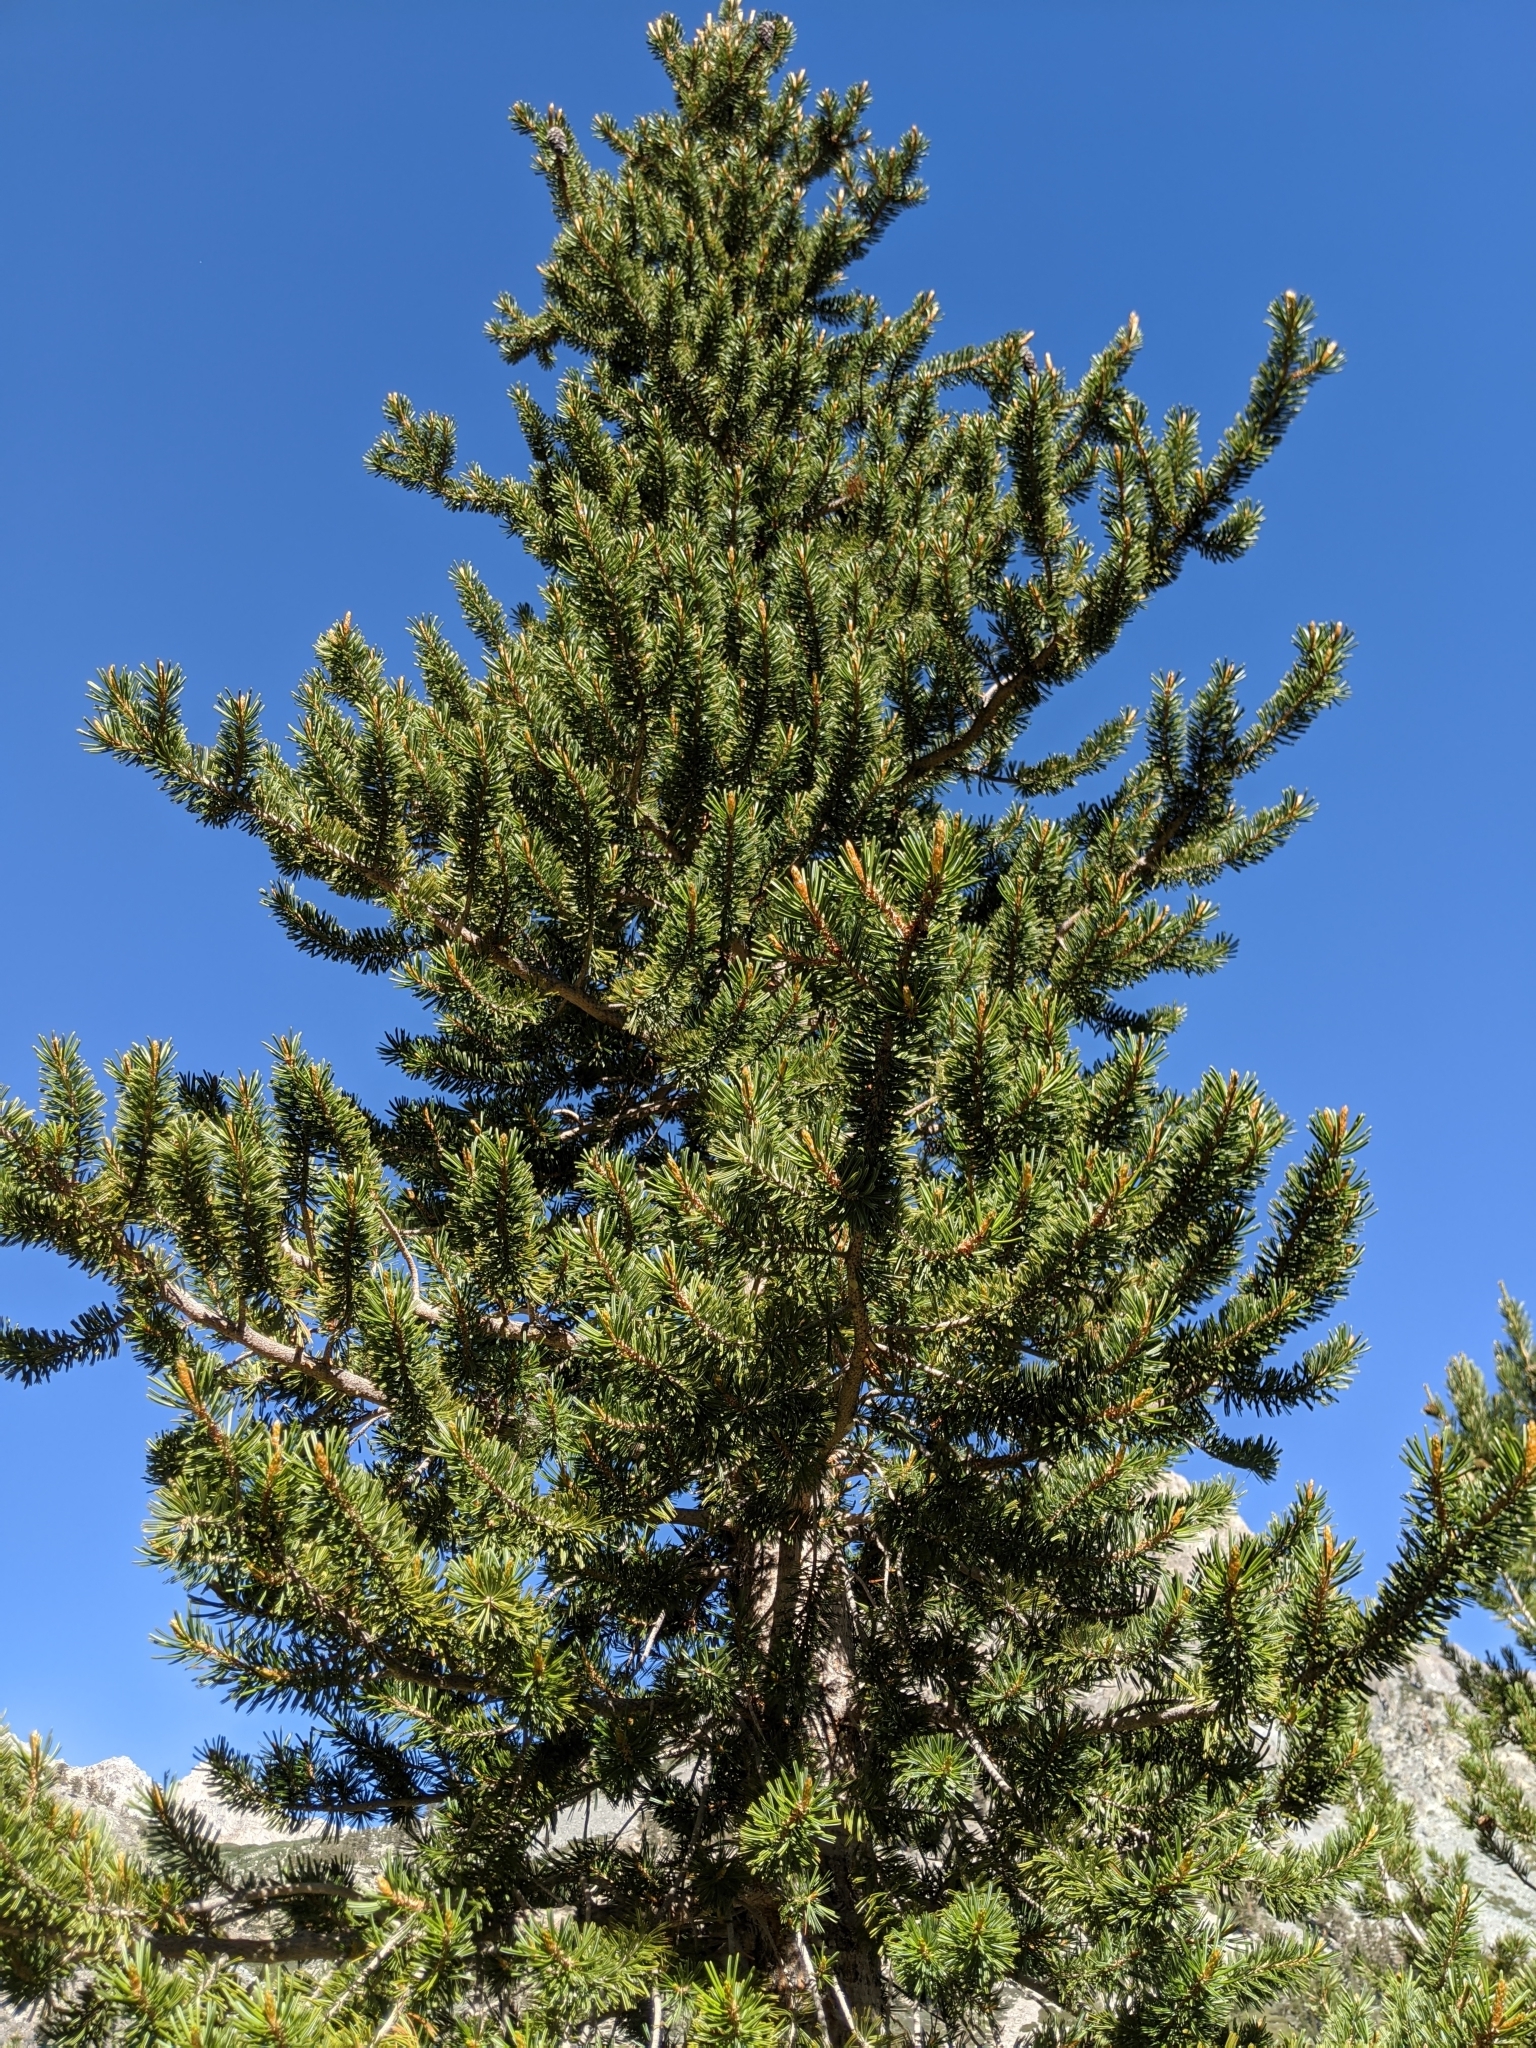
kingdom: Plantae
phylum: Tracheophyta
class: Pinopsida
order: Pinales
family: Pinaceae
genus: Pinus
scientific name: Pinus balfouriana
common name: Foxtail pine
